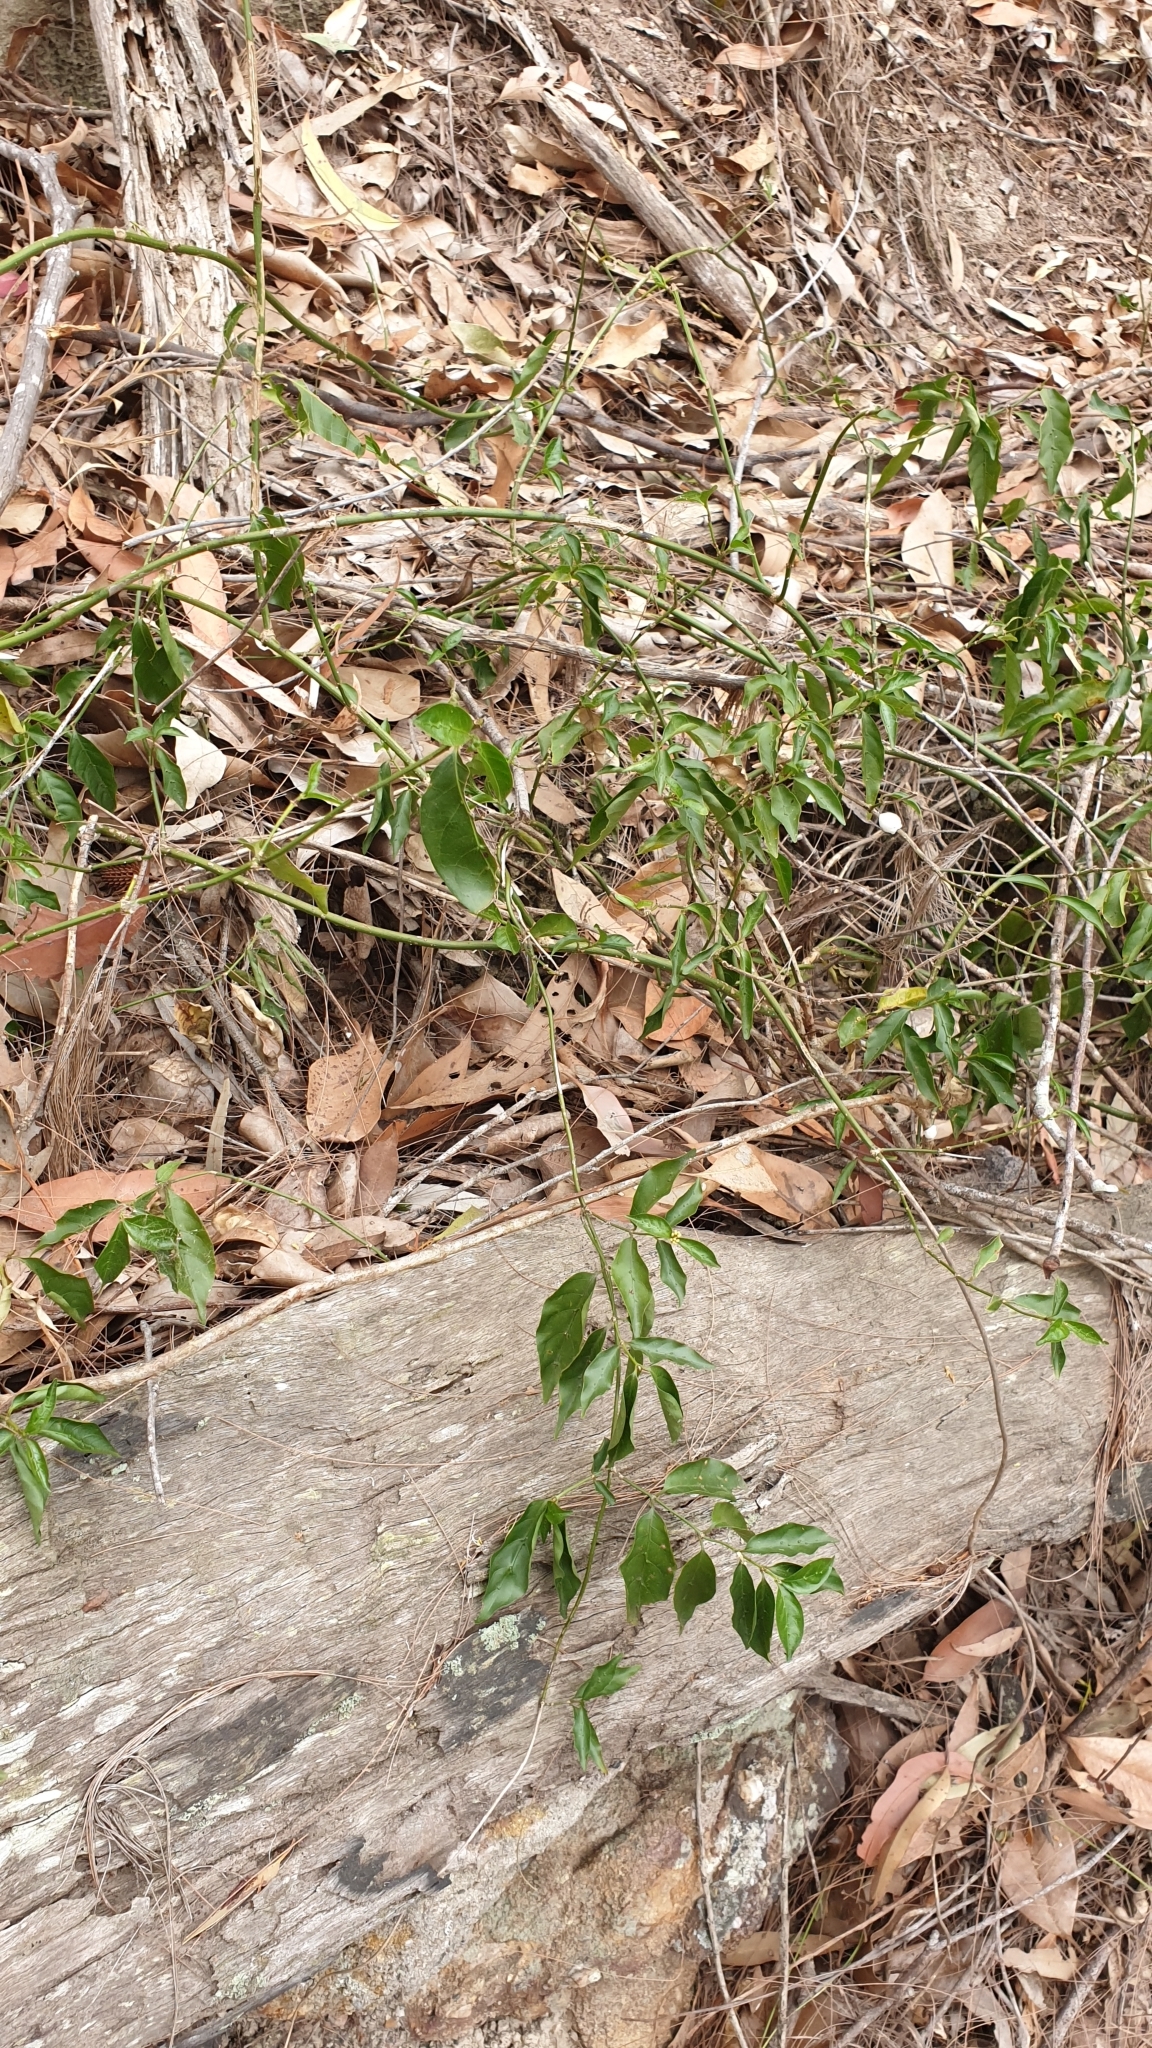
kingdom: Plantae
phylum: Tracheophyta
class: Magnoliopsida
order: Gentianales
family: Rubiaceae
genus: Gynochthodes
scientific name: Gynochthodes jasminoides
